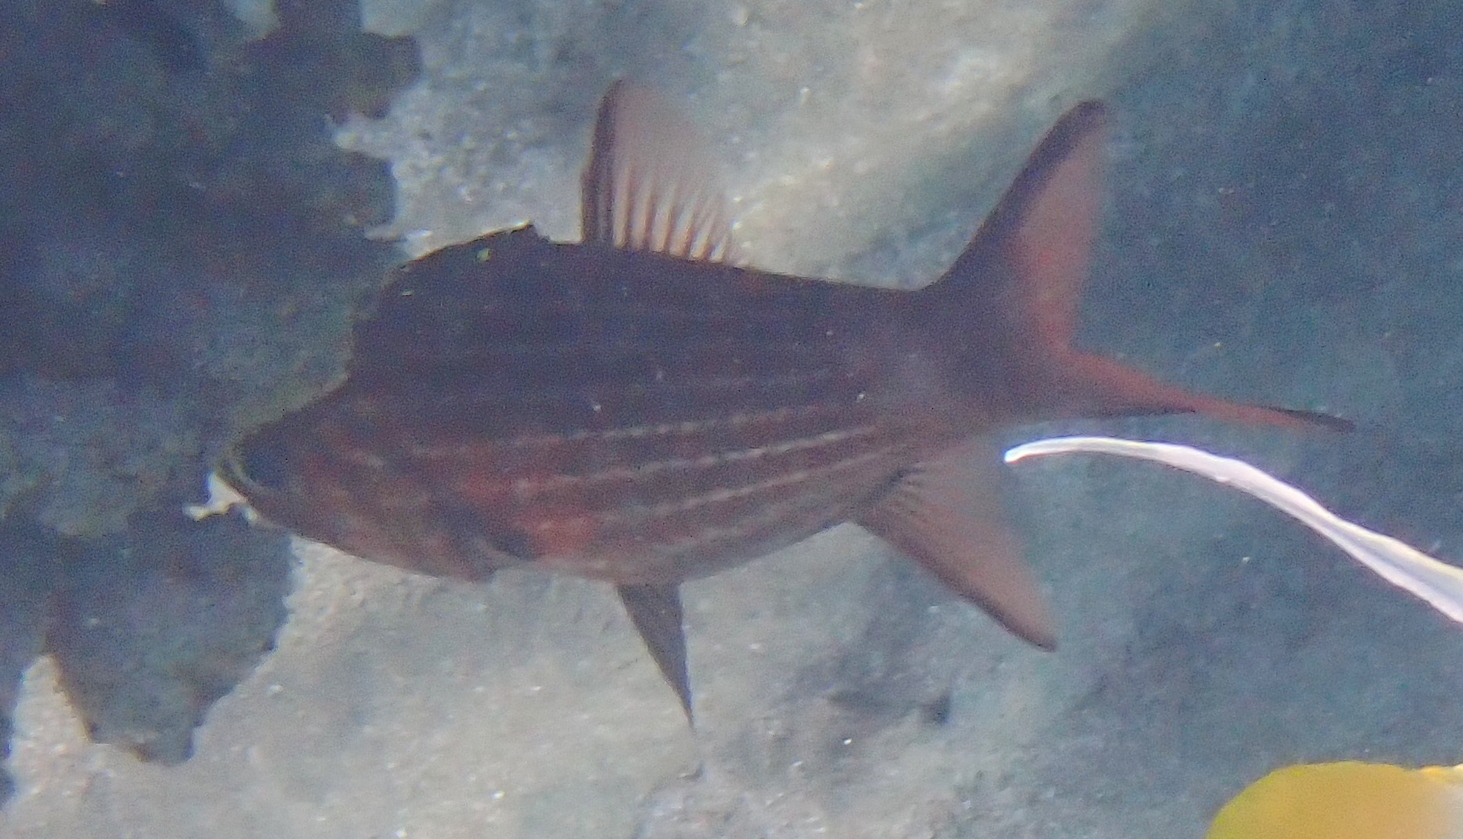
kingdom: Animalia
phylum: Chordata
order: Perciformes
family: Apogonidae
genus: Cheilodipterus
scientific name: Cheilodipterus macrodon
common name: Eight-lined cardinalfish
